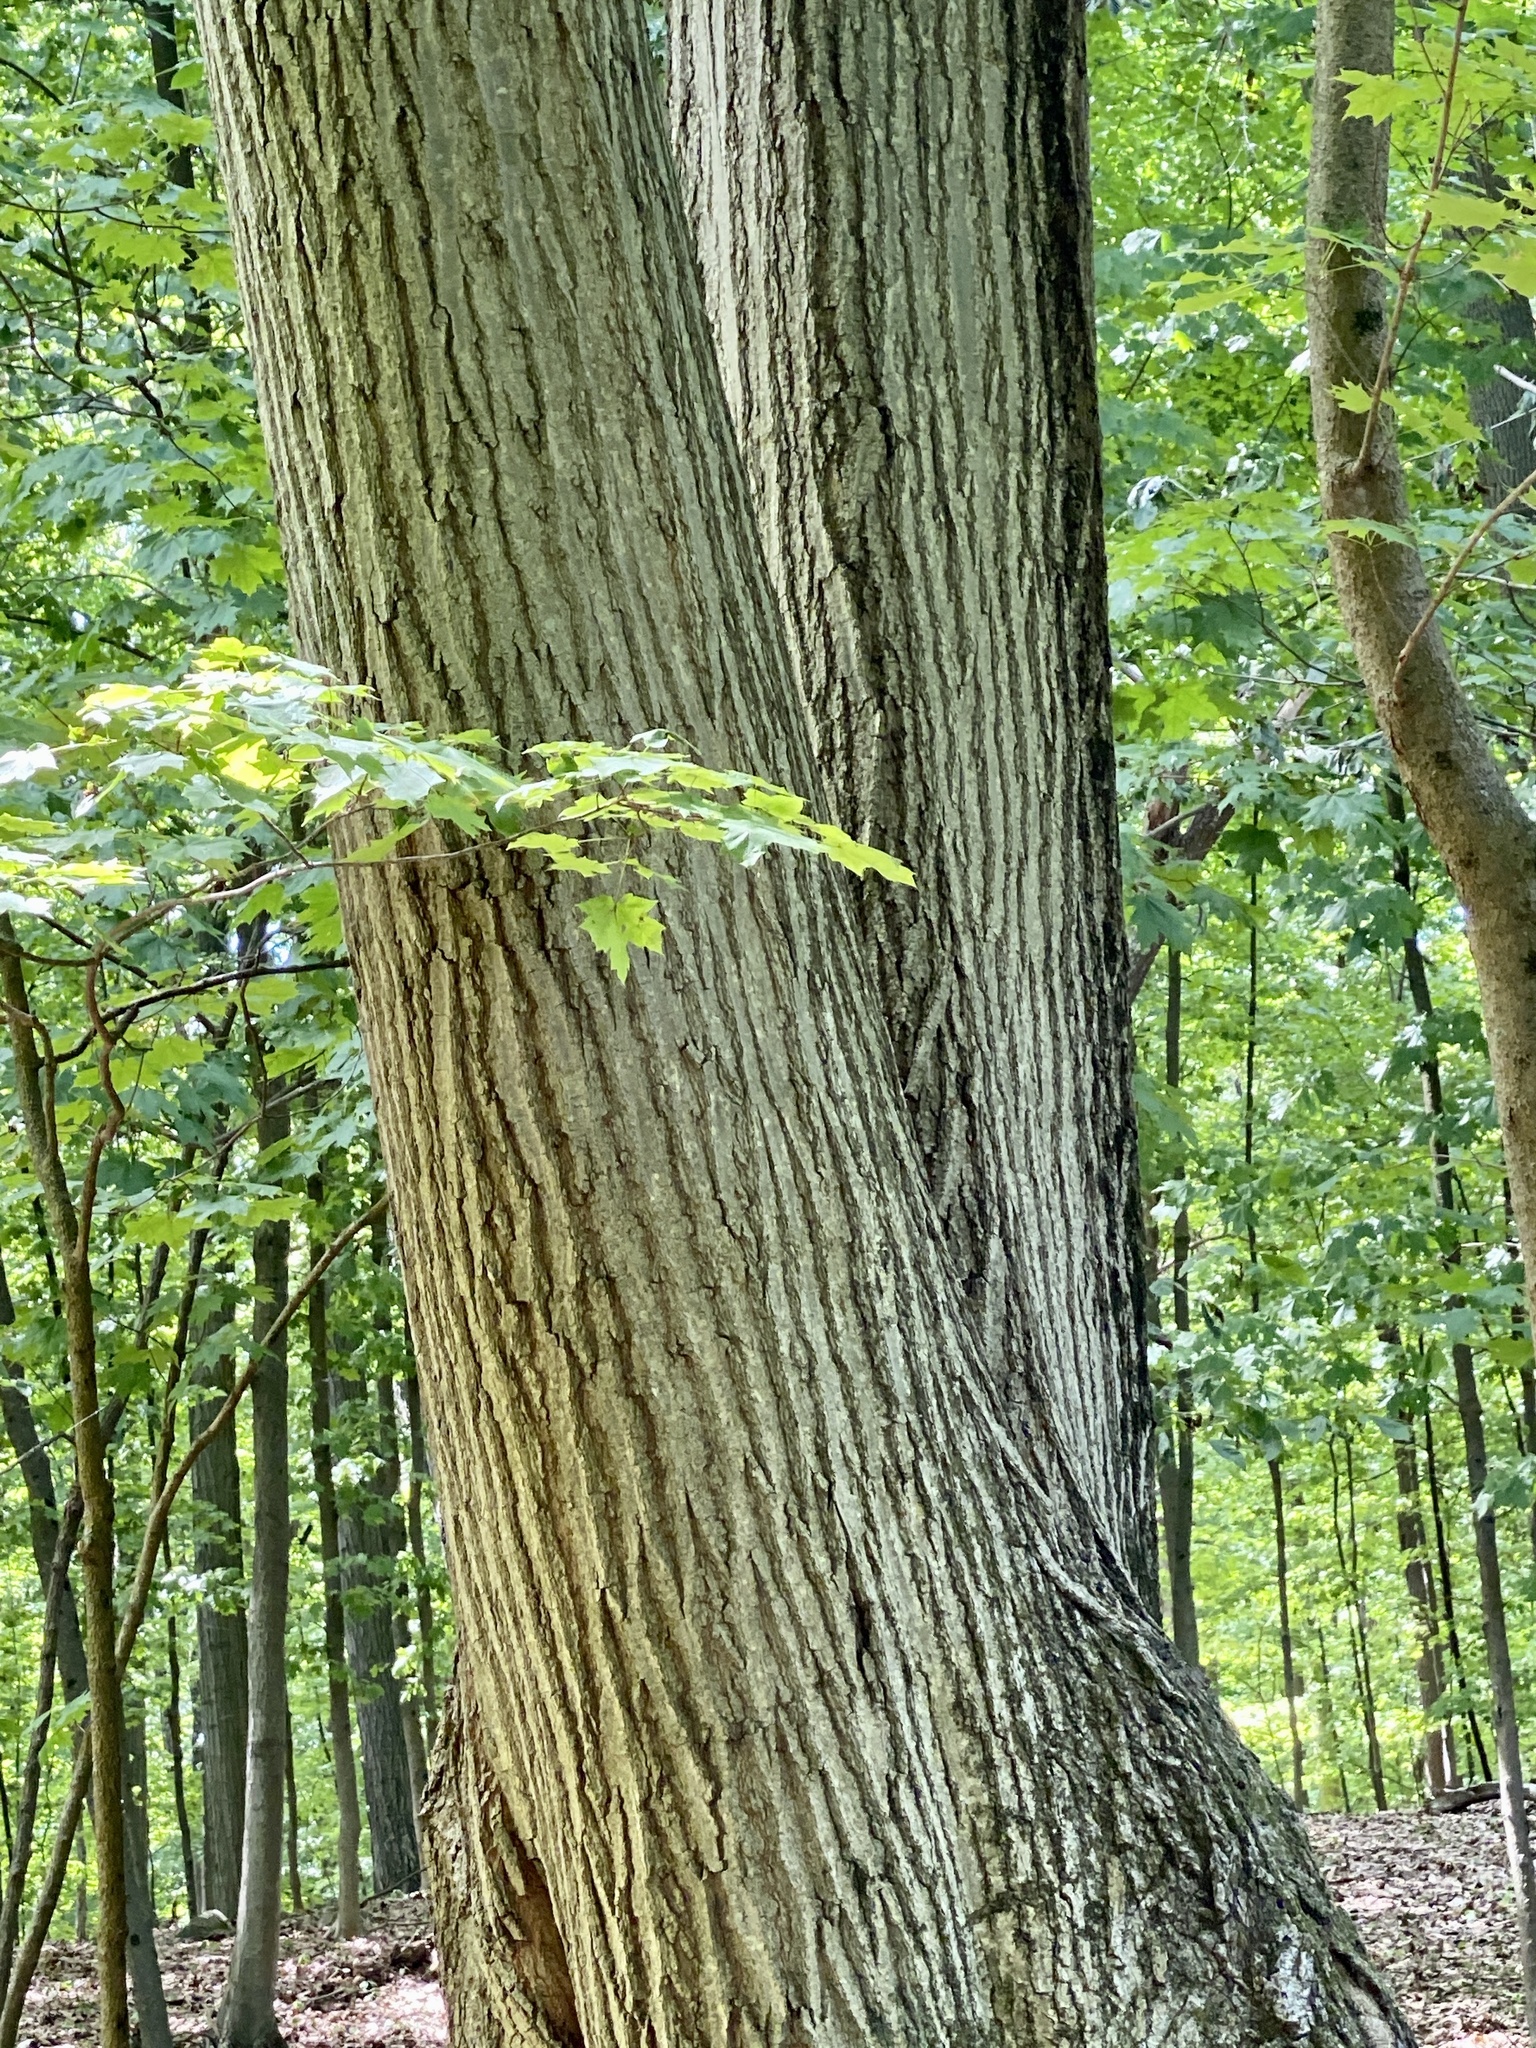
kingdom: Plantae
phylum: Tracheophyta
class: Magnoliopsida
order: Fagales
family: Fagaceae
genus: Quercus
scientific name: Quercus rubra
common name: Red oak
